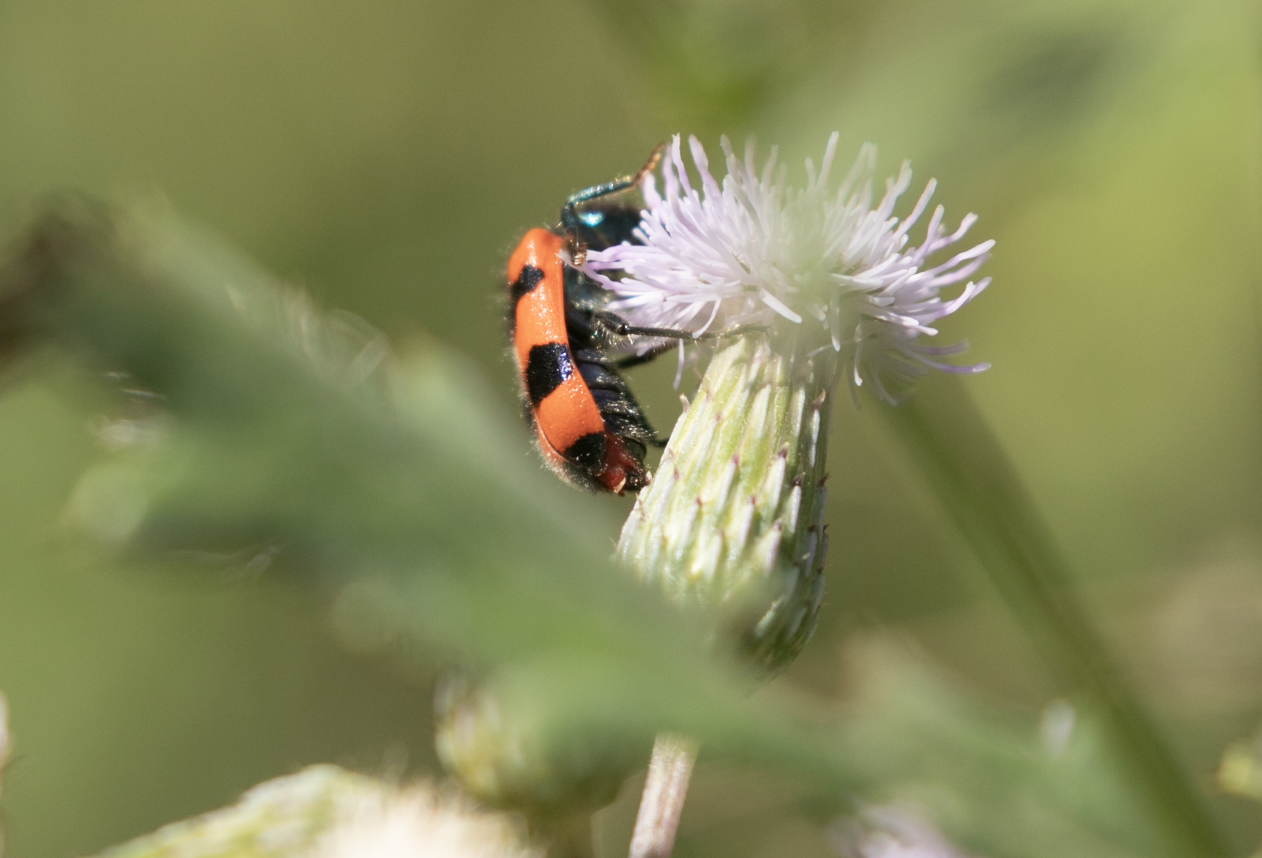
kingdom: Animalia
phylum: Arthropoda
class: Insecta
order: Coleoptera
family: Cleridae
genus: Trichodes
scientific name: Trichodes apiarius
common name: Bee-eating beetle
